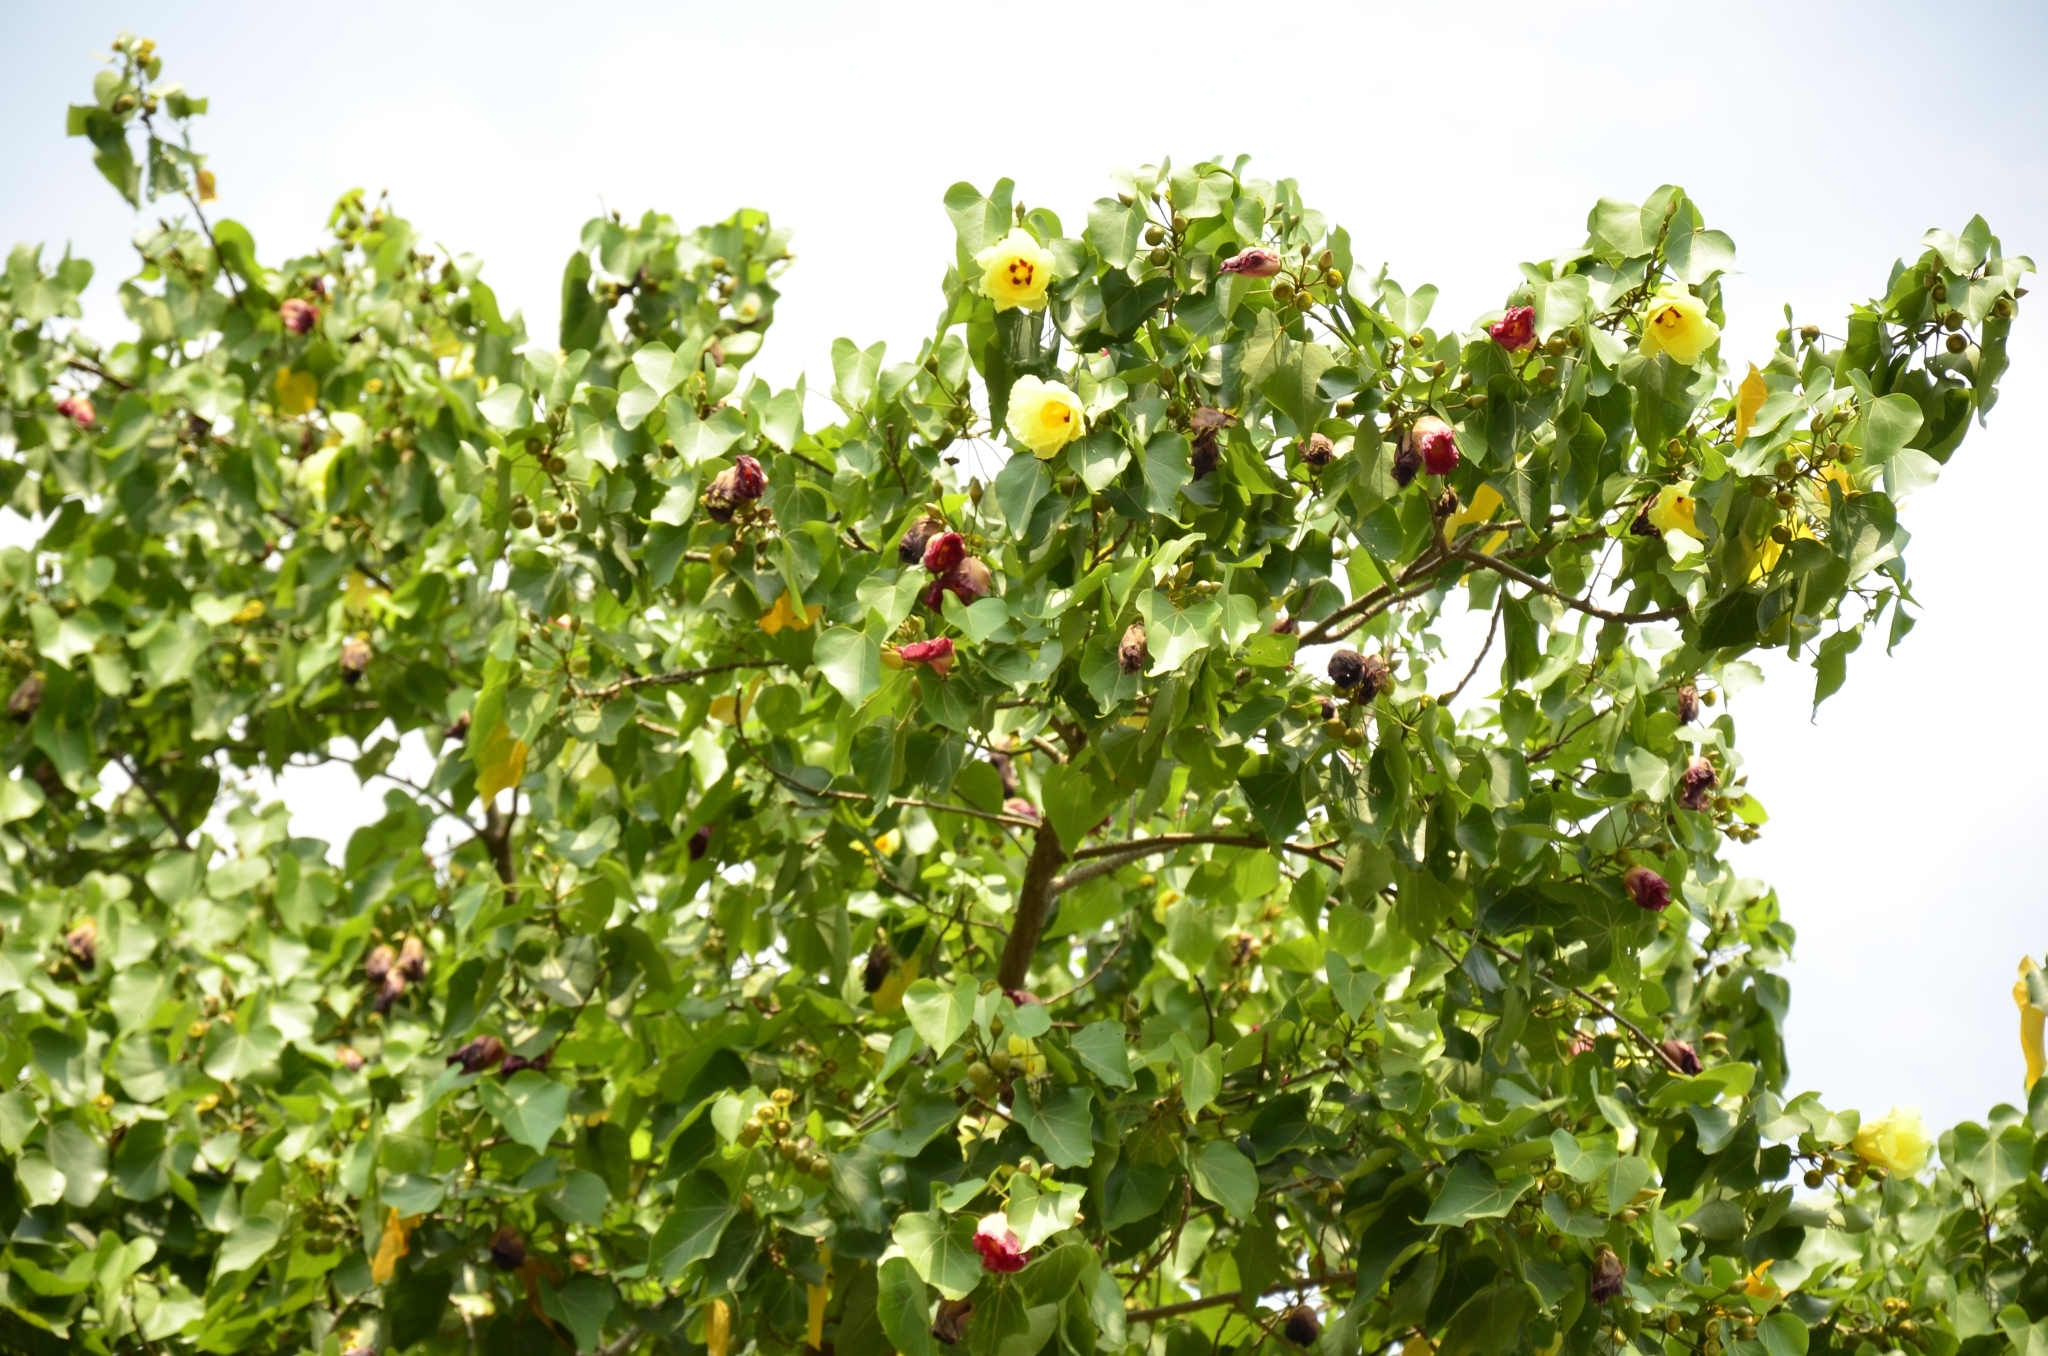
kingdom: Plantae
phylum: Tracheophyta
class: Magnoliopsida
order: Malvales
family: Malvaceae
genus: Thespesia
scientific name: Thespesia populnea
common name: Seaside mahoe
